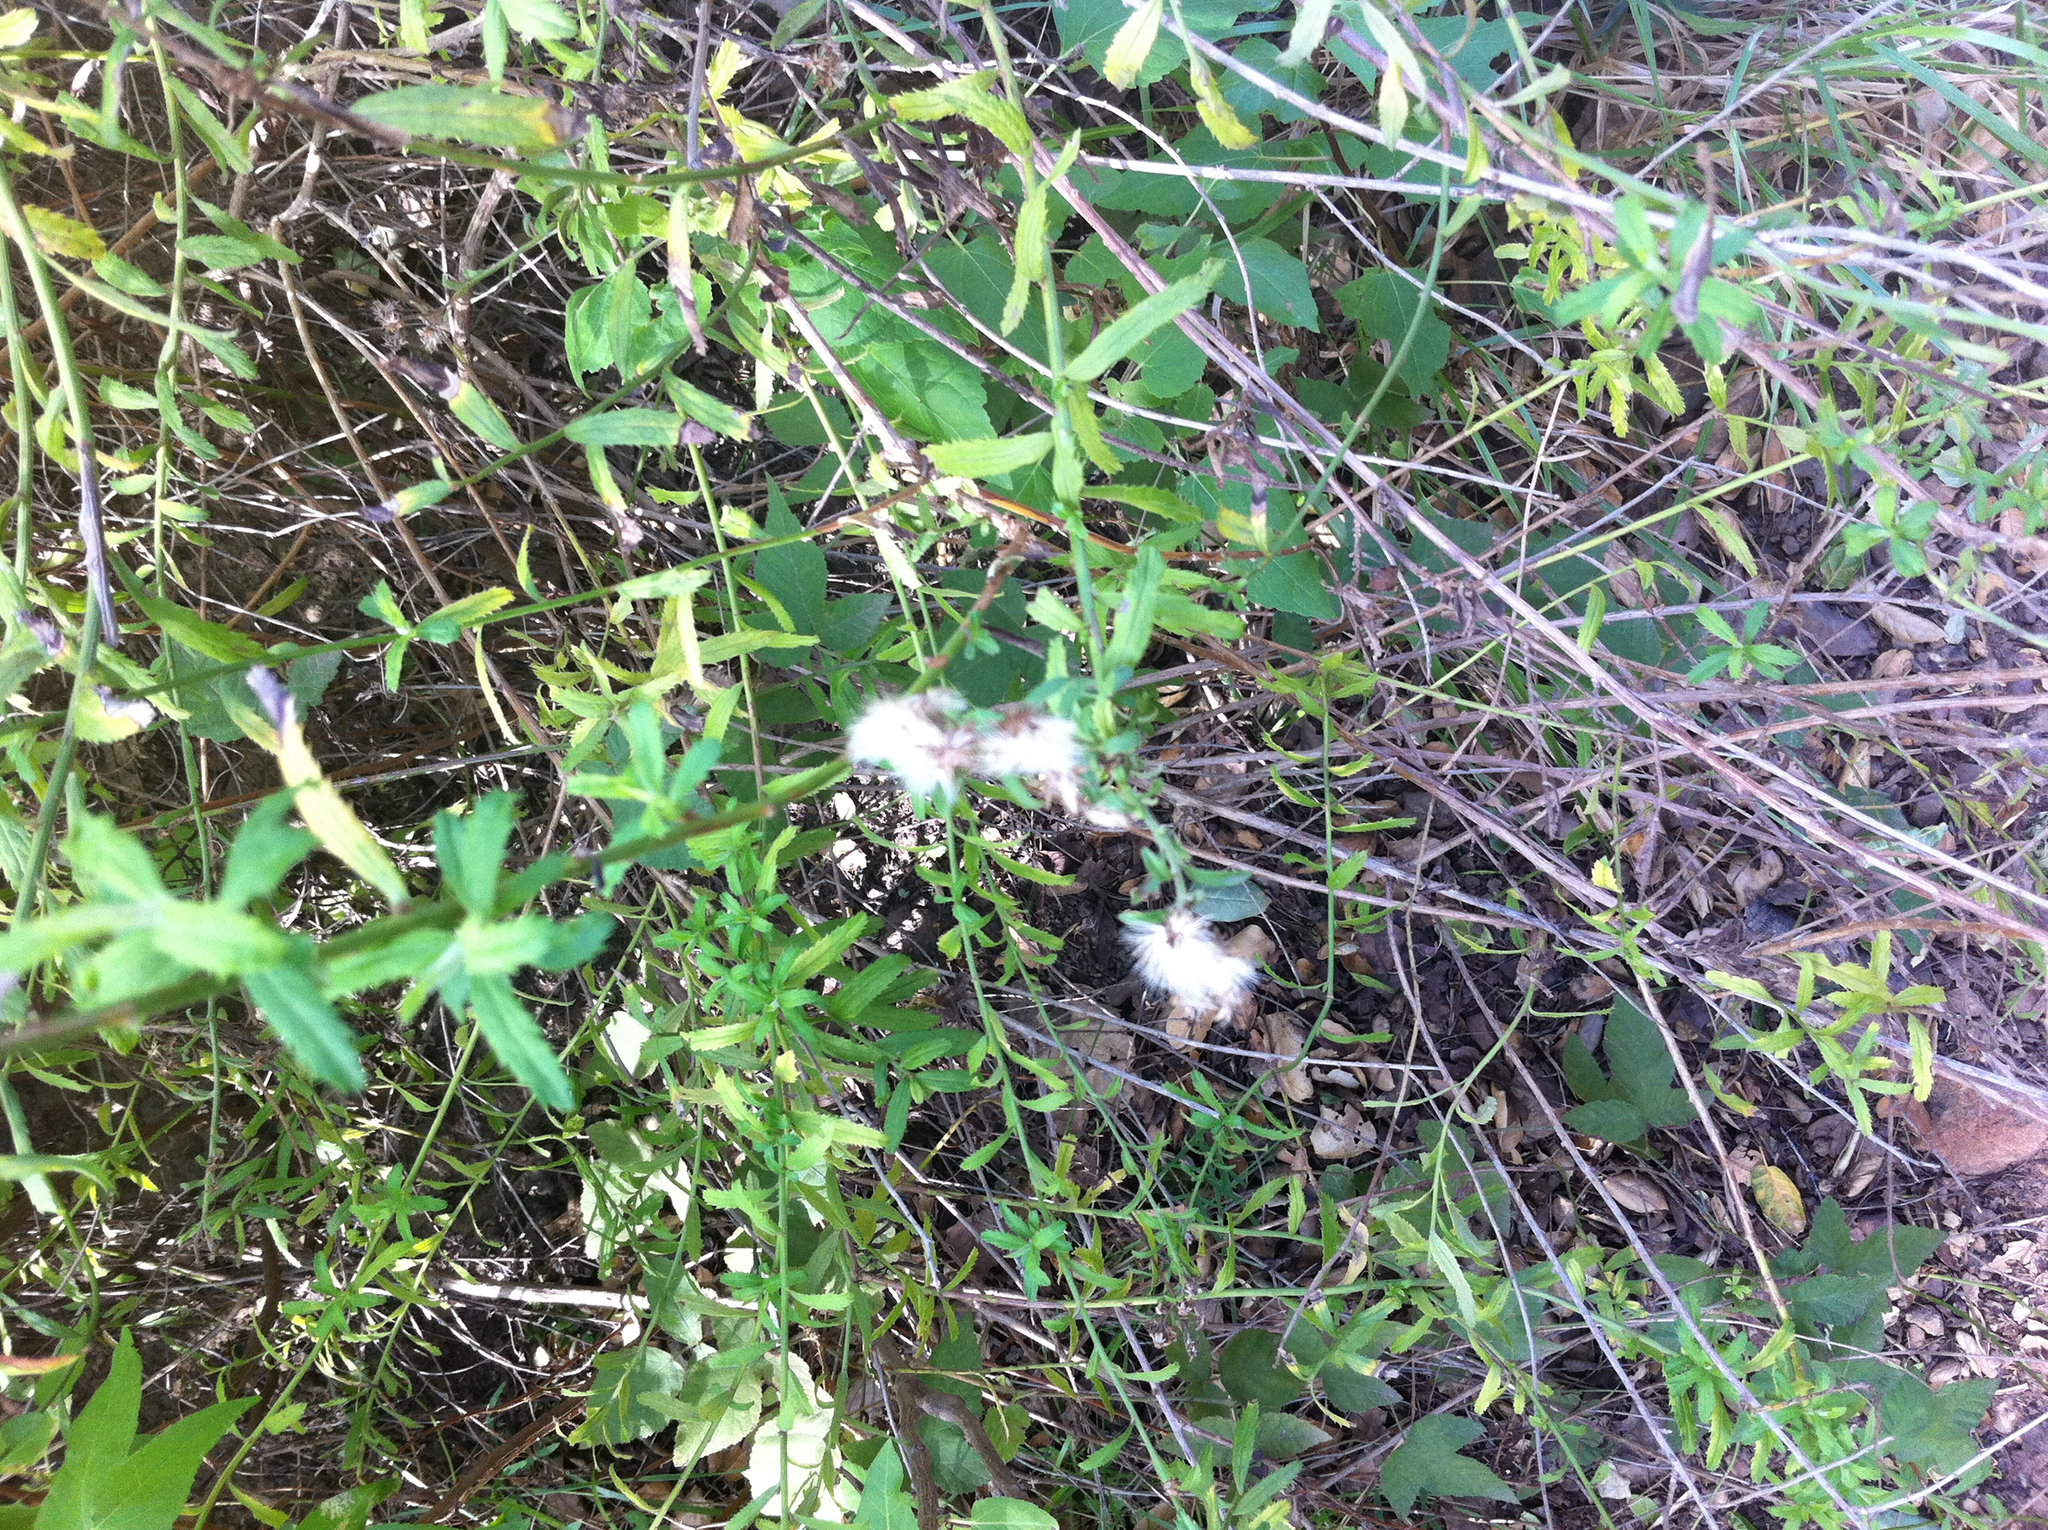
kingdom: Plantae
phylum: Tracheophyta
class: Magnoliopsida
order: Asterales
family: Asteraceae
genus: Baccharis
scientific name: Baccharis plummerae
